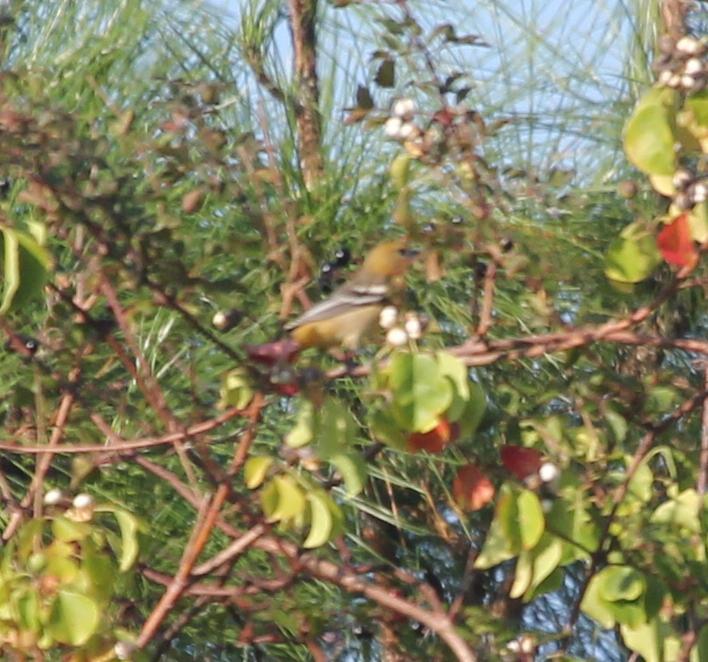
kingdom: Animalia
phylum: Chordata
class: Aves
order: Passeriformes
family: Icteridae
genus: Icterus
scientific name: Icterus galbula
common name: Baltimore oriole
